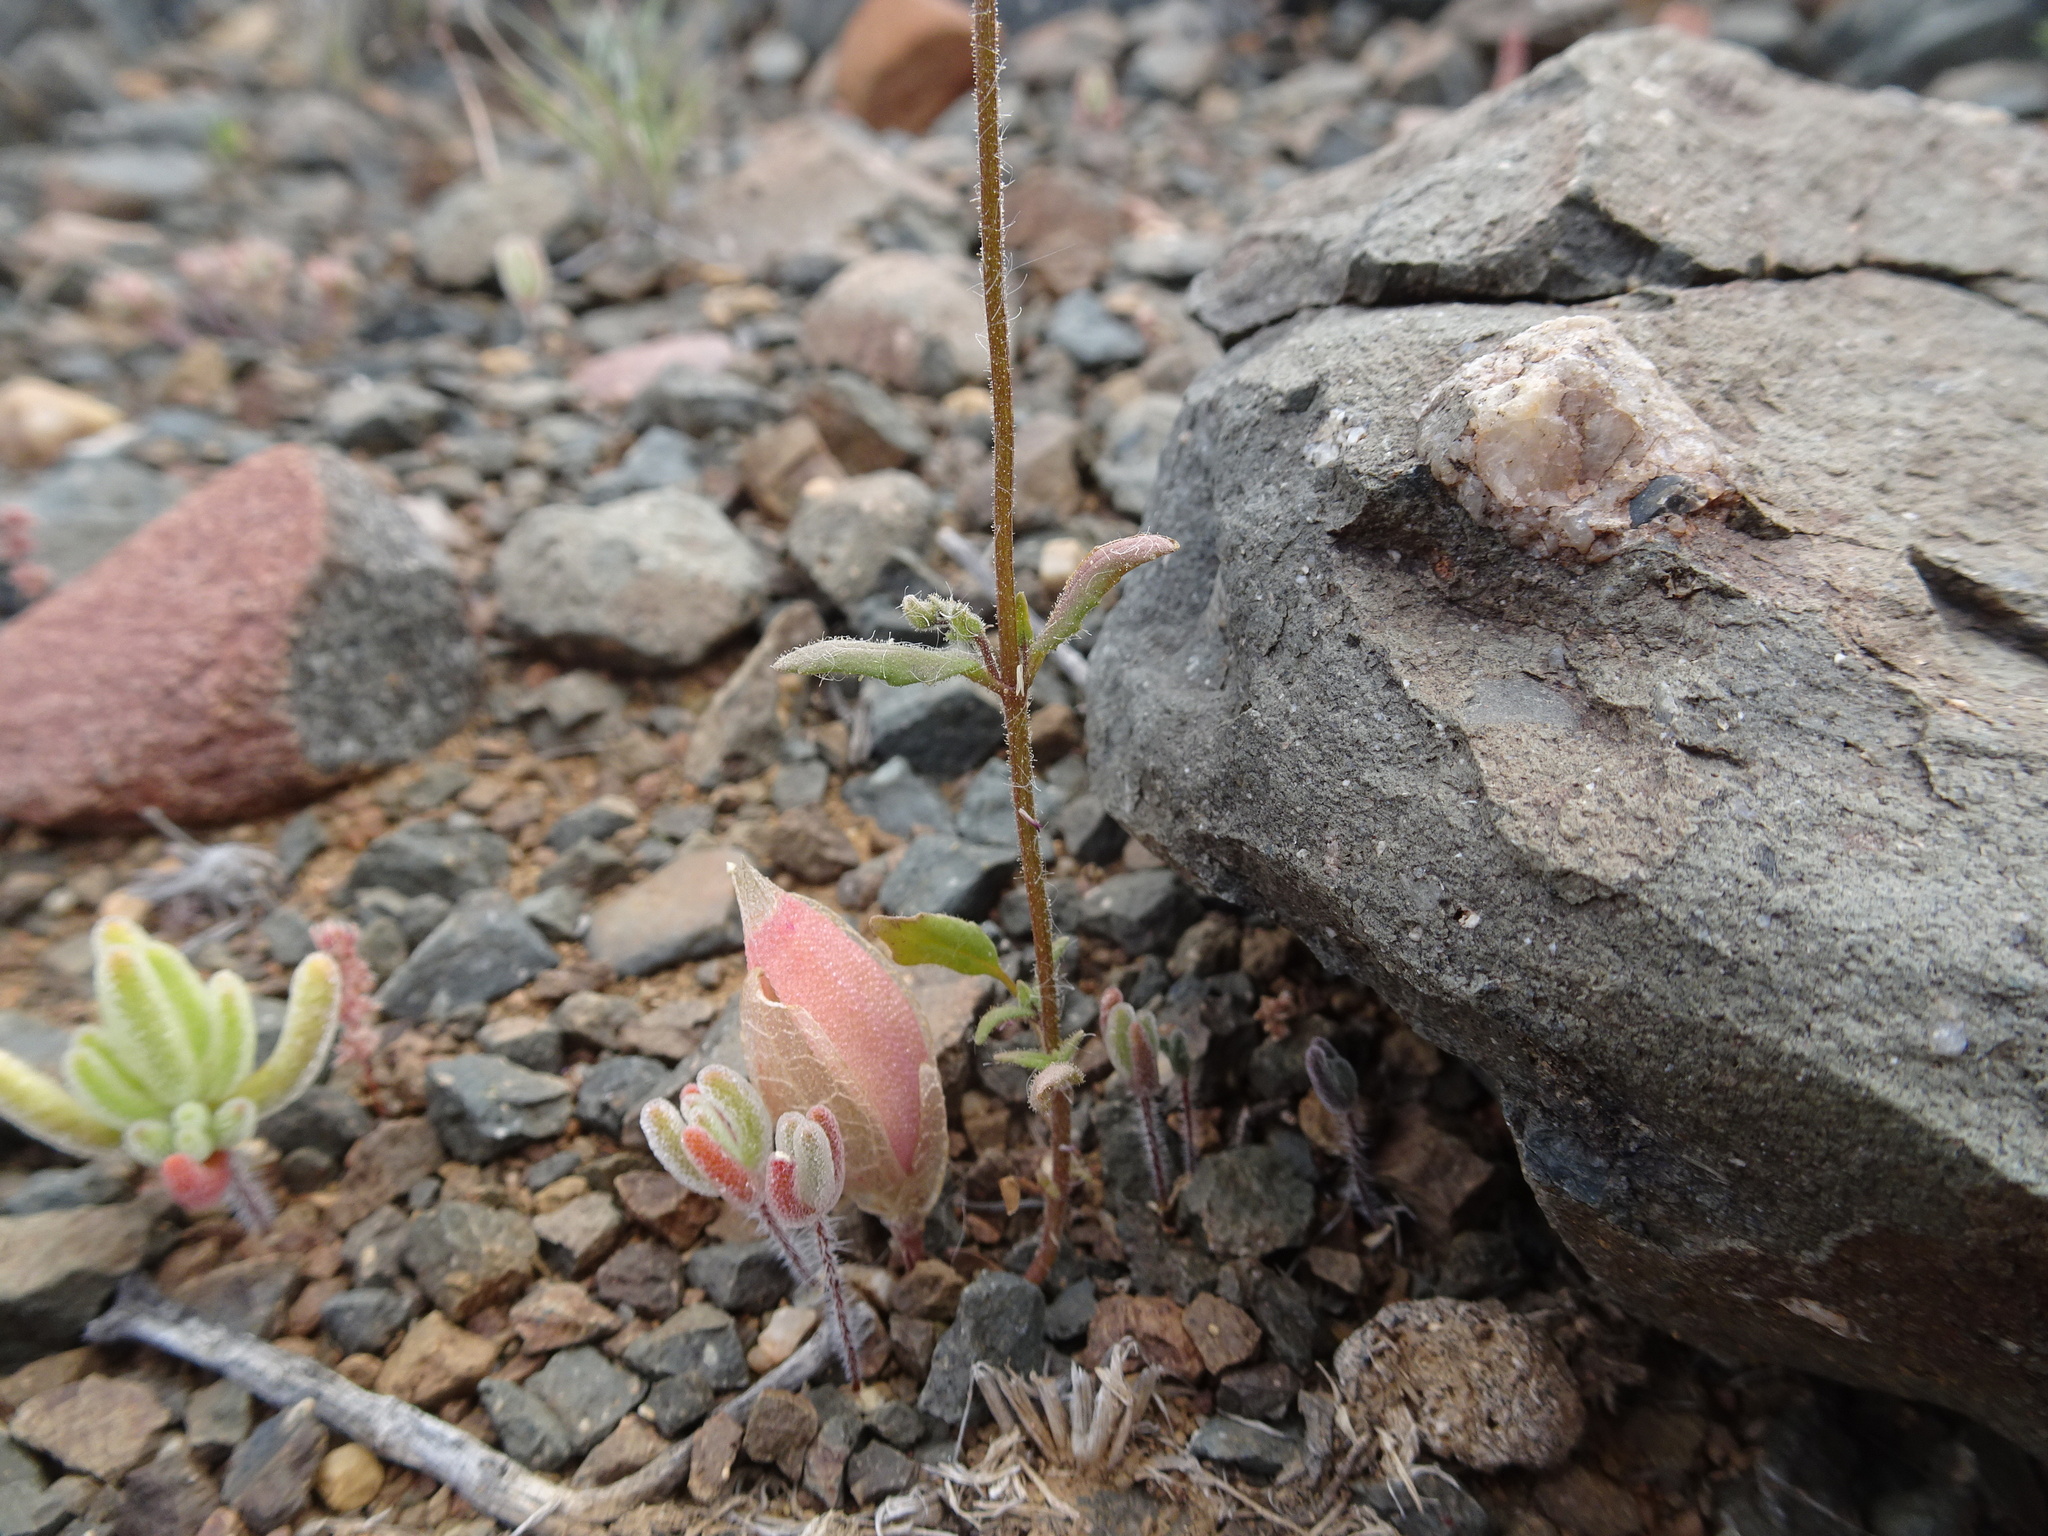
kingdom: Plantae
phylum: Tracheophyta
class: Magnoliopsida
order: Lamiales
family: Scrophulariaceae
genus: Nemesia
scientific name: Nemesia anisocarpa
